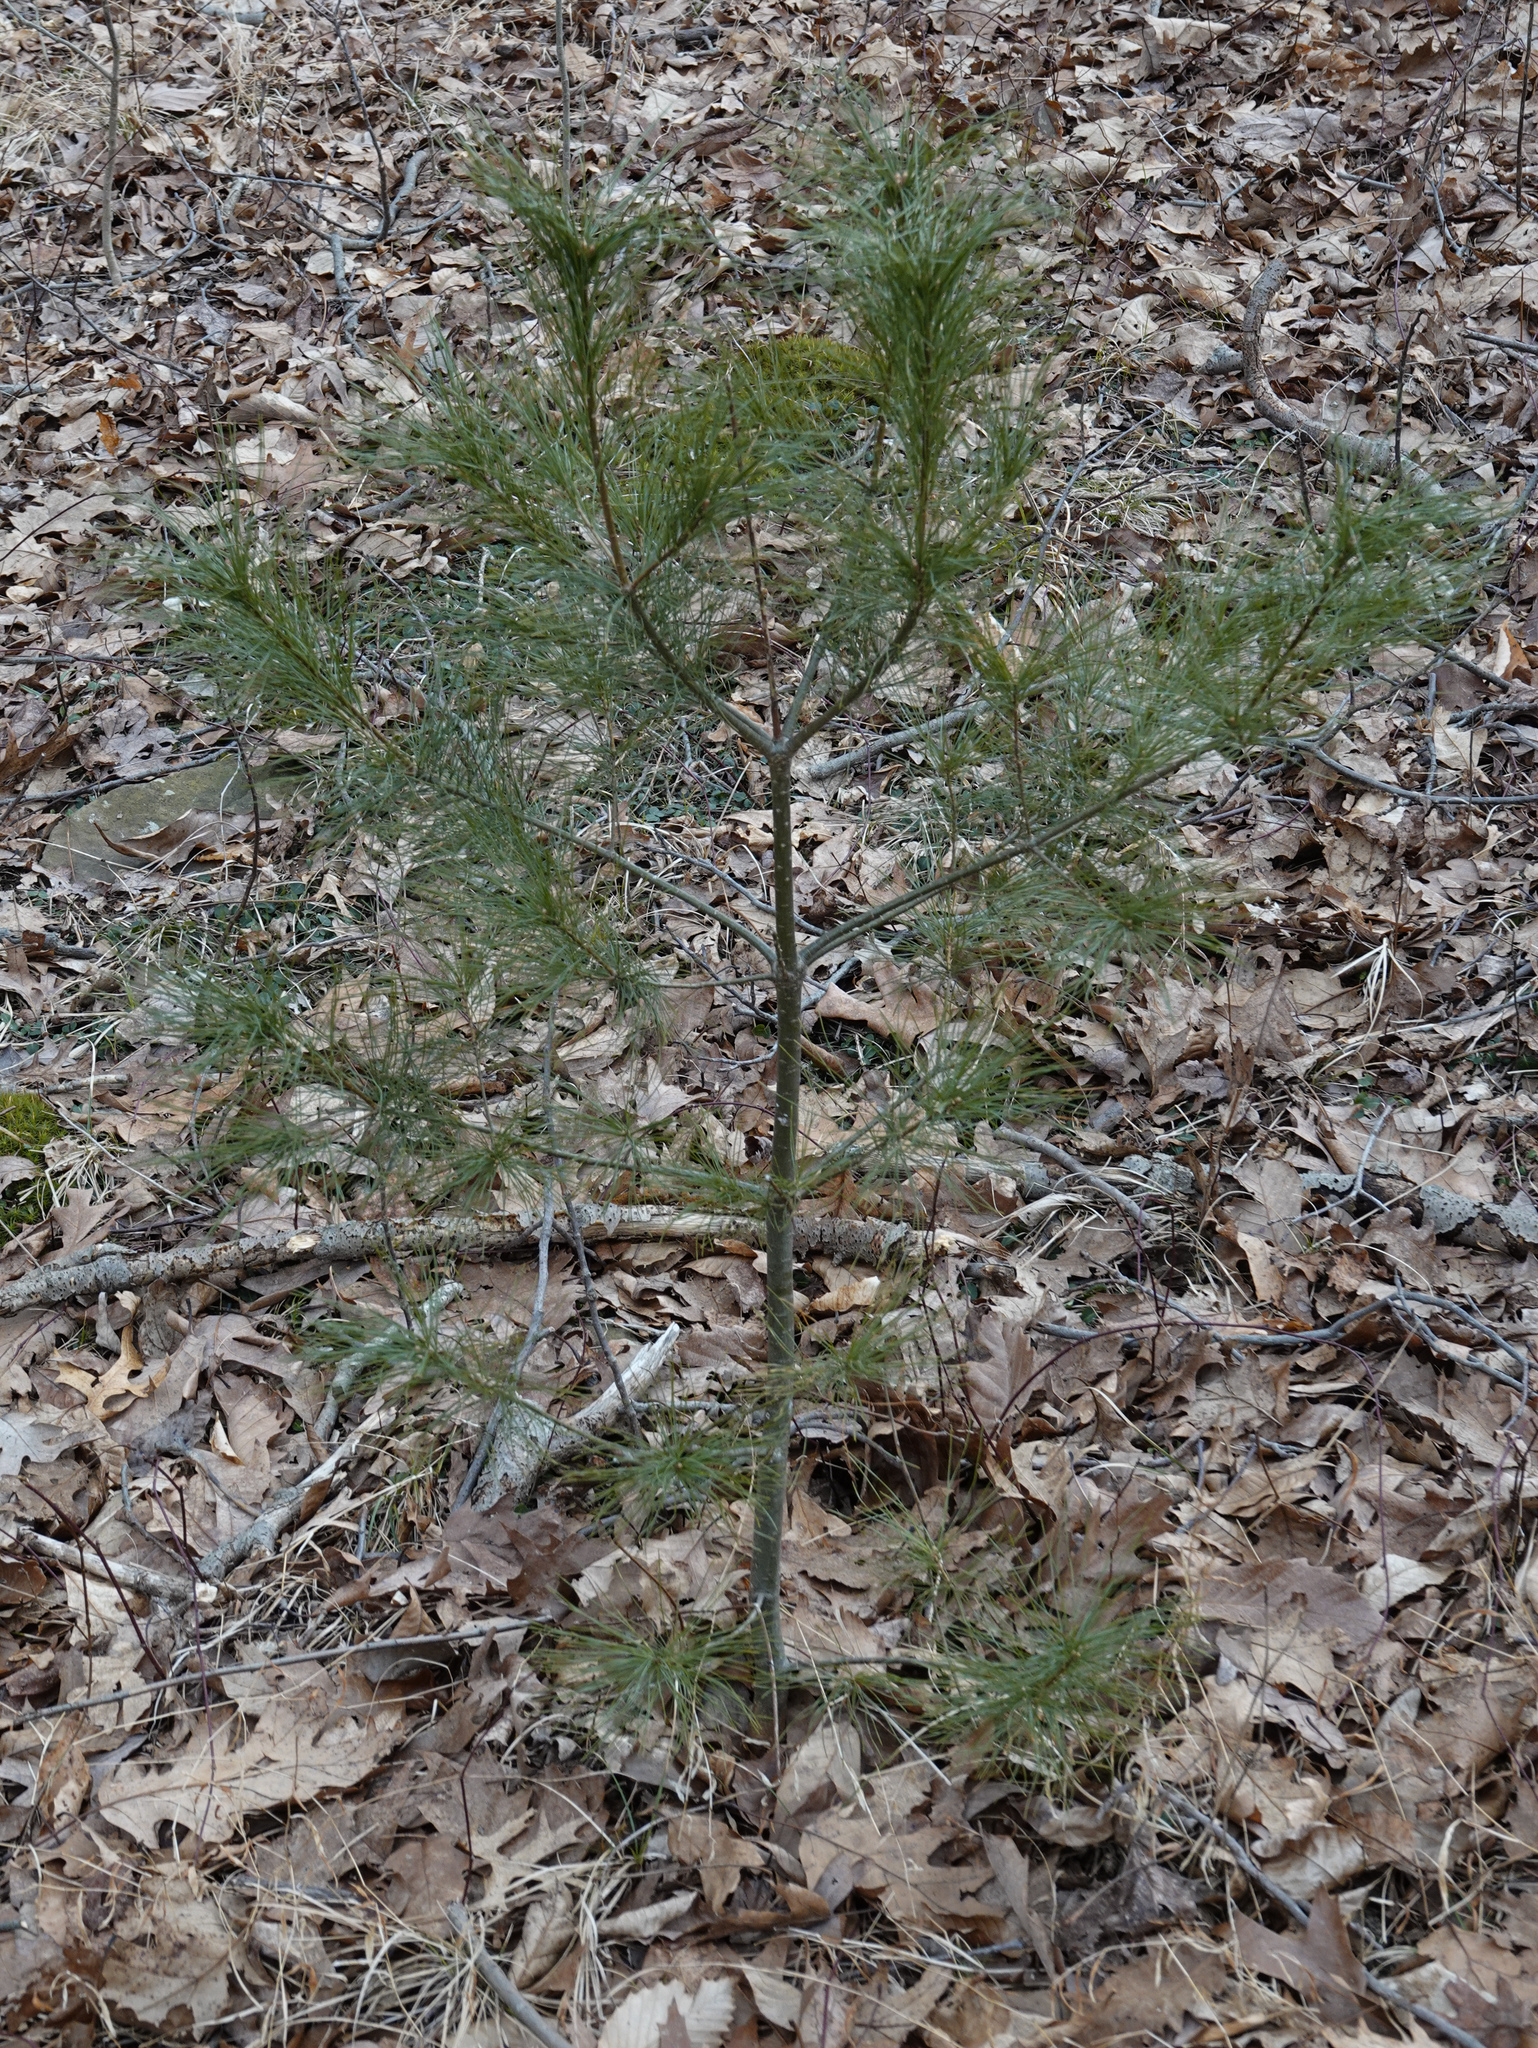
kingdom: Plantae
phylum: Tracheophyta
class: Pinopsida
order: Pinales
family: Pinaceae
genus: Pinus
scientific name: Pinus strobus
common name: Weymouth pine
